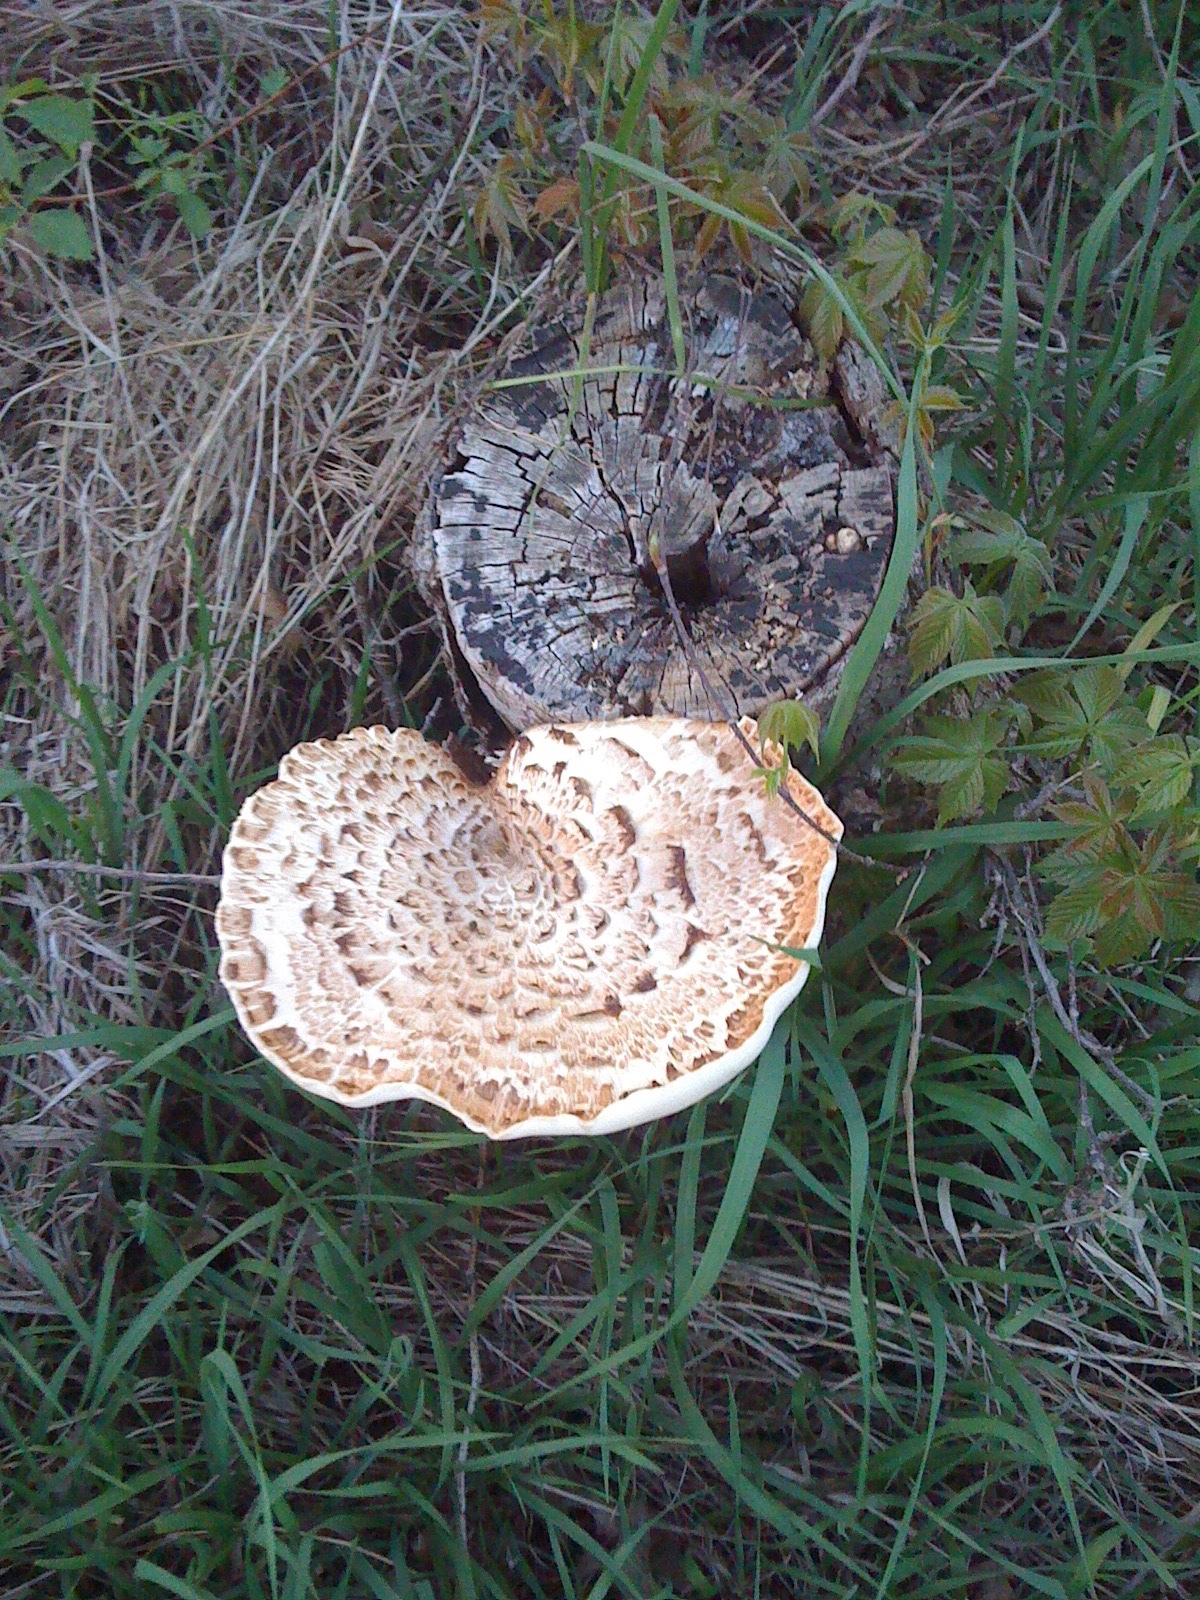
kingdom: Fungi
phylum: Basidiomycota
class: Agaricomycetes
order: Polyporales
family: Polyporaceae
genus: Cerioporus
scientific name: Cerioporus squamosus
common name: Dryad's saddle
